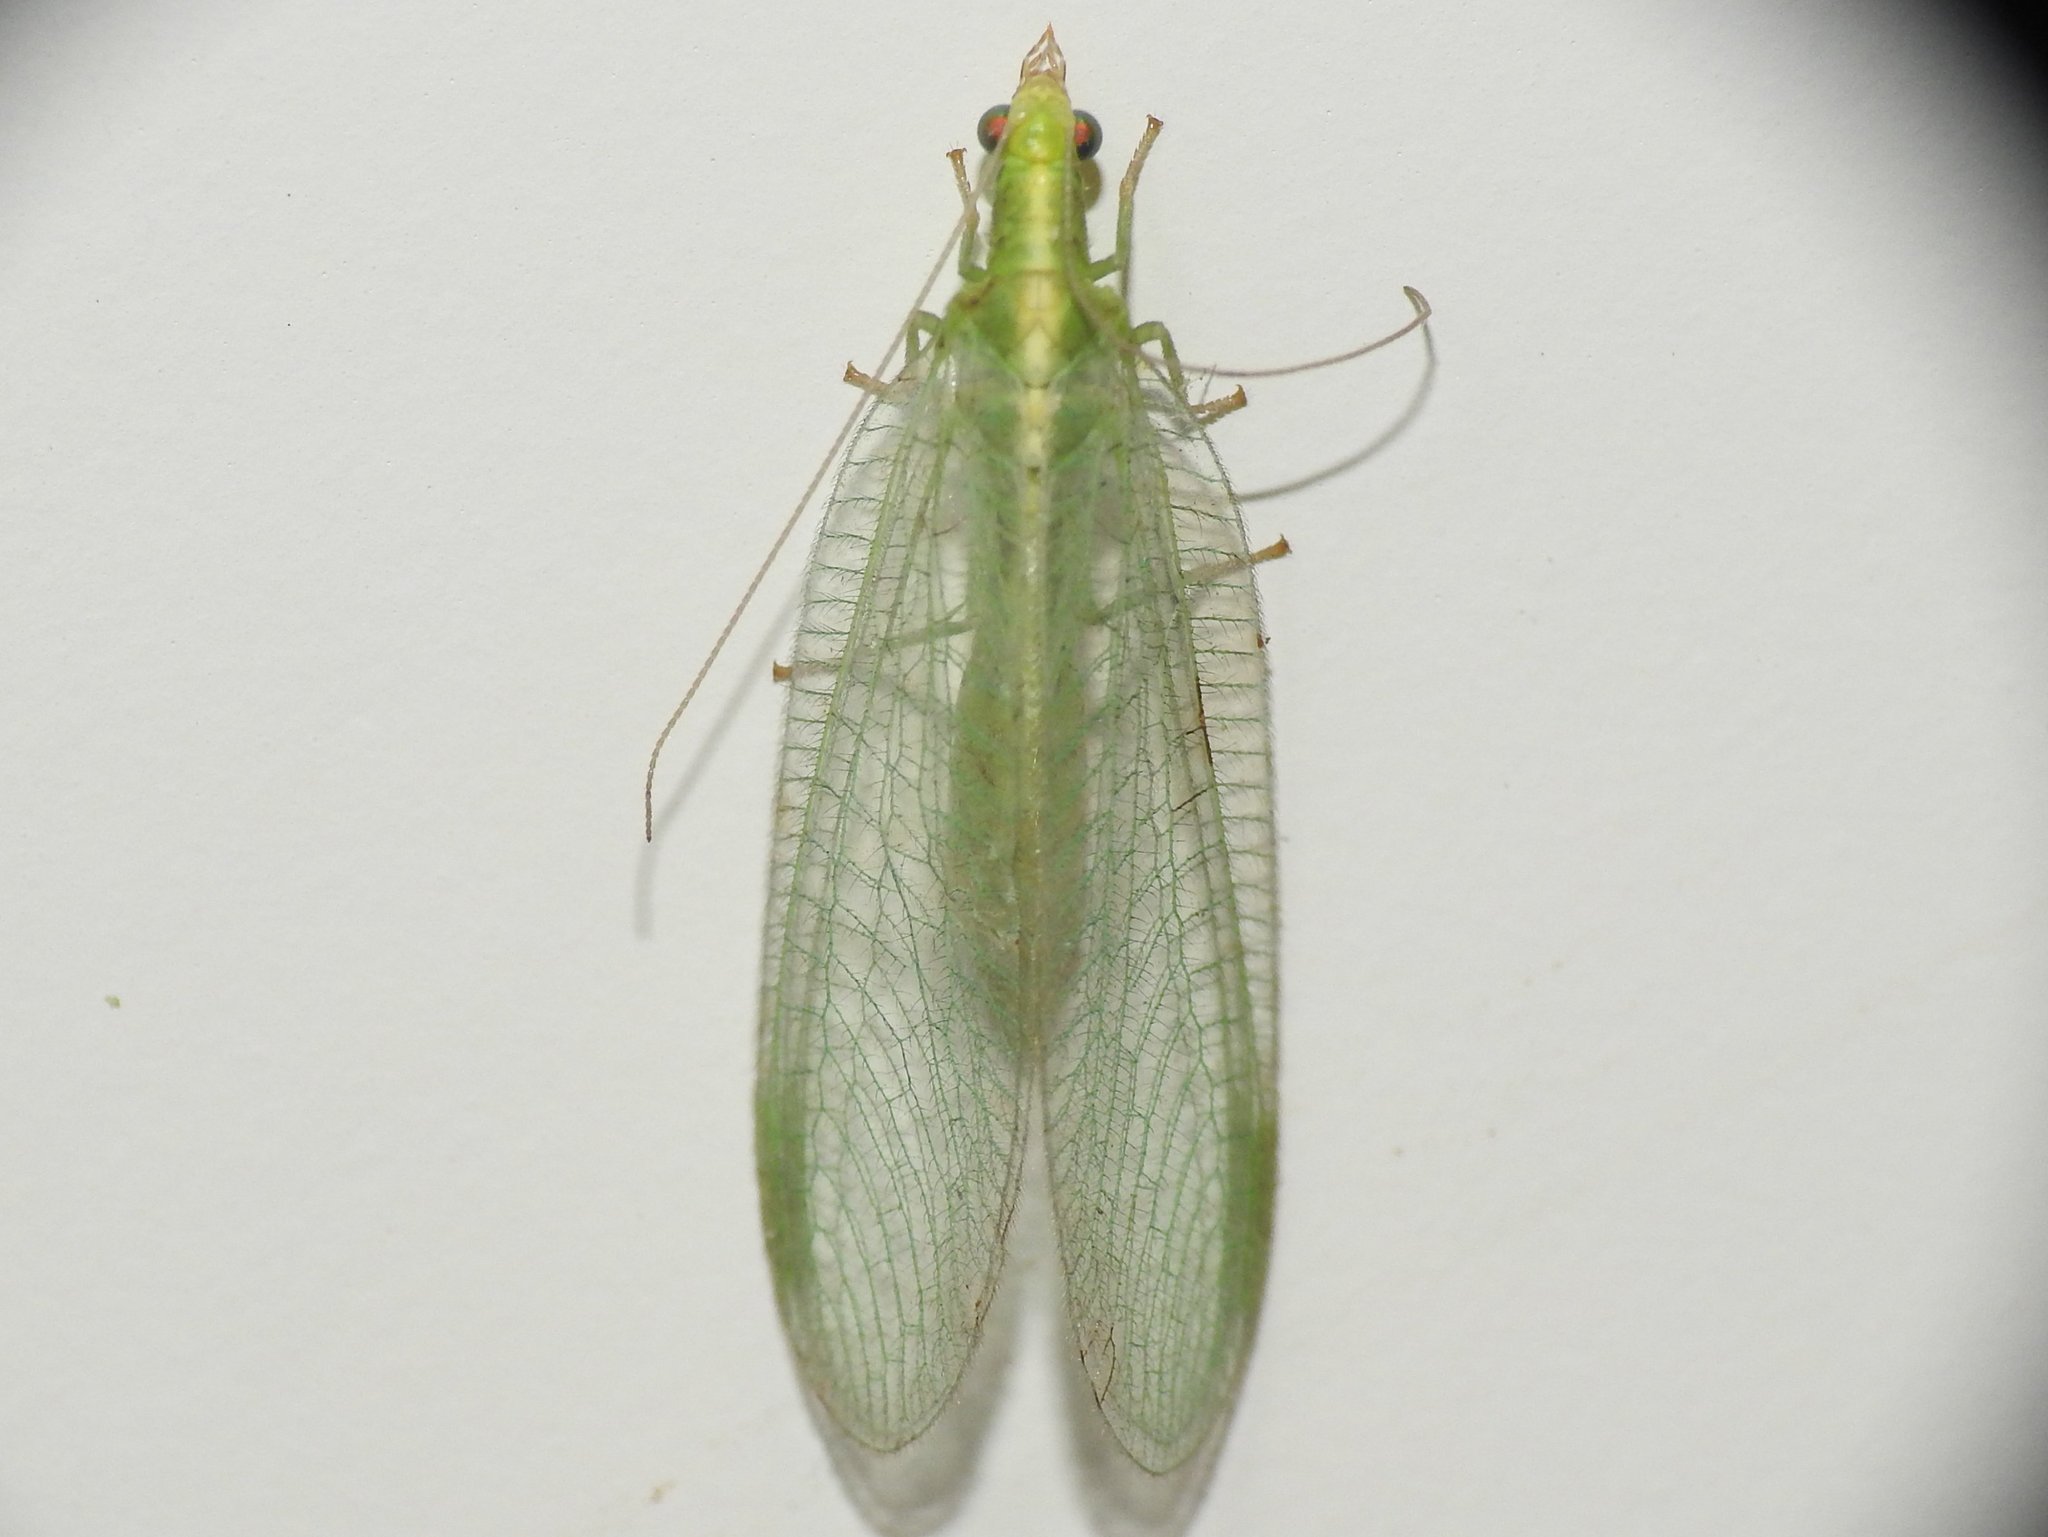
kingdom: Animalia
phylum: Arthropoda
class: Insecta
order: Neuroptera
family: Chrysopidae
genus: Chrysoperla
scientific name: Chrysoperla
